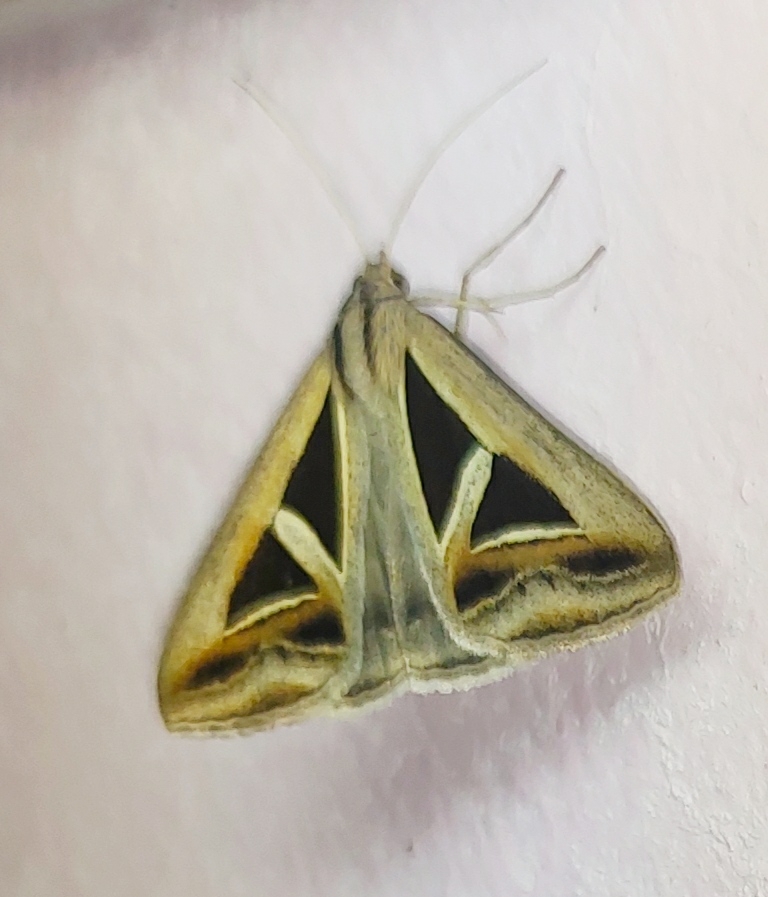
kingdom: Animalia
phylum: Arthropoda
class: Insecta
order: Lepidoptera
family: Erebidae
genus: Trigonodes
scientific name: Trigonodes hyppasia
